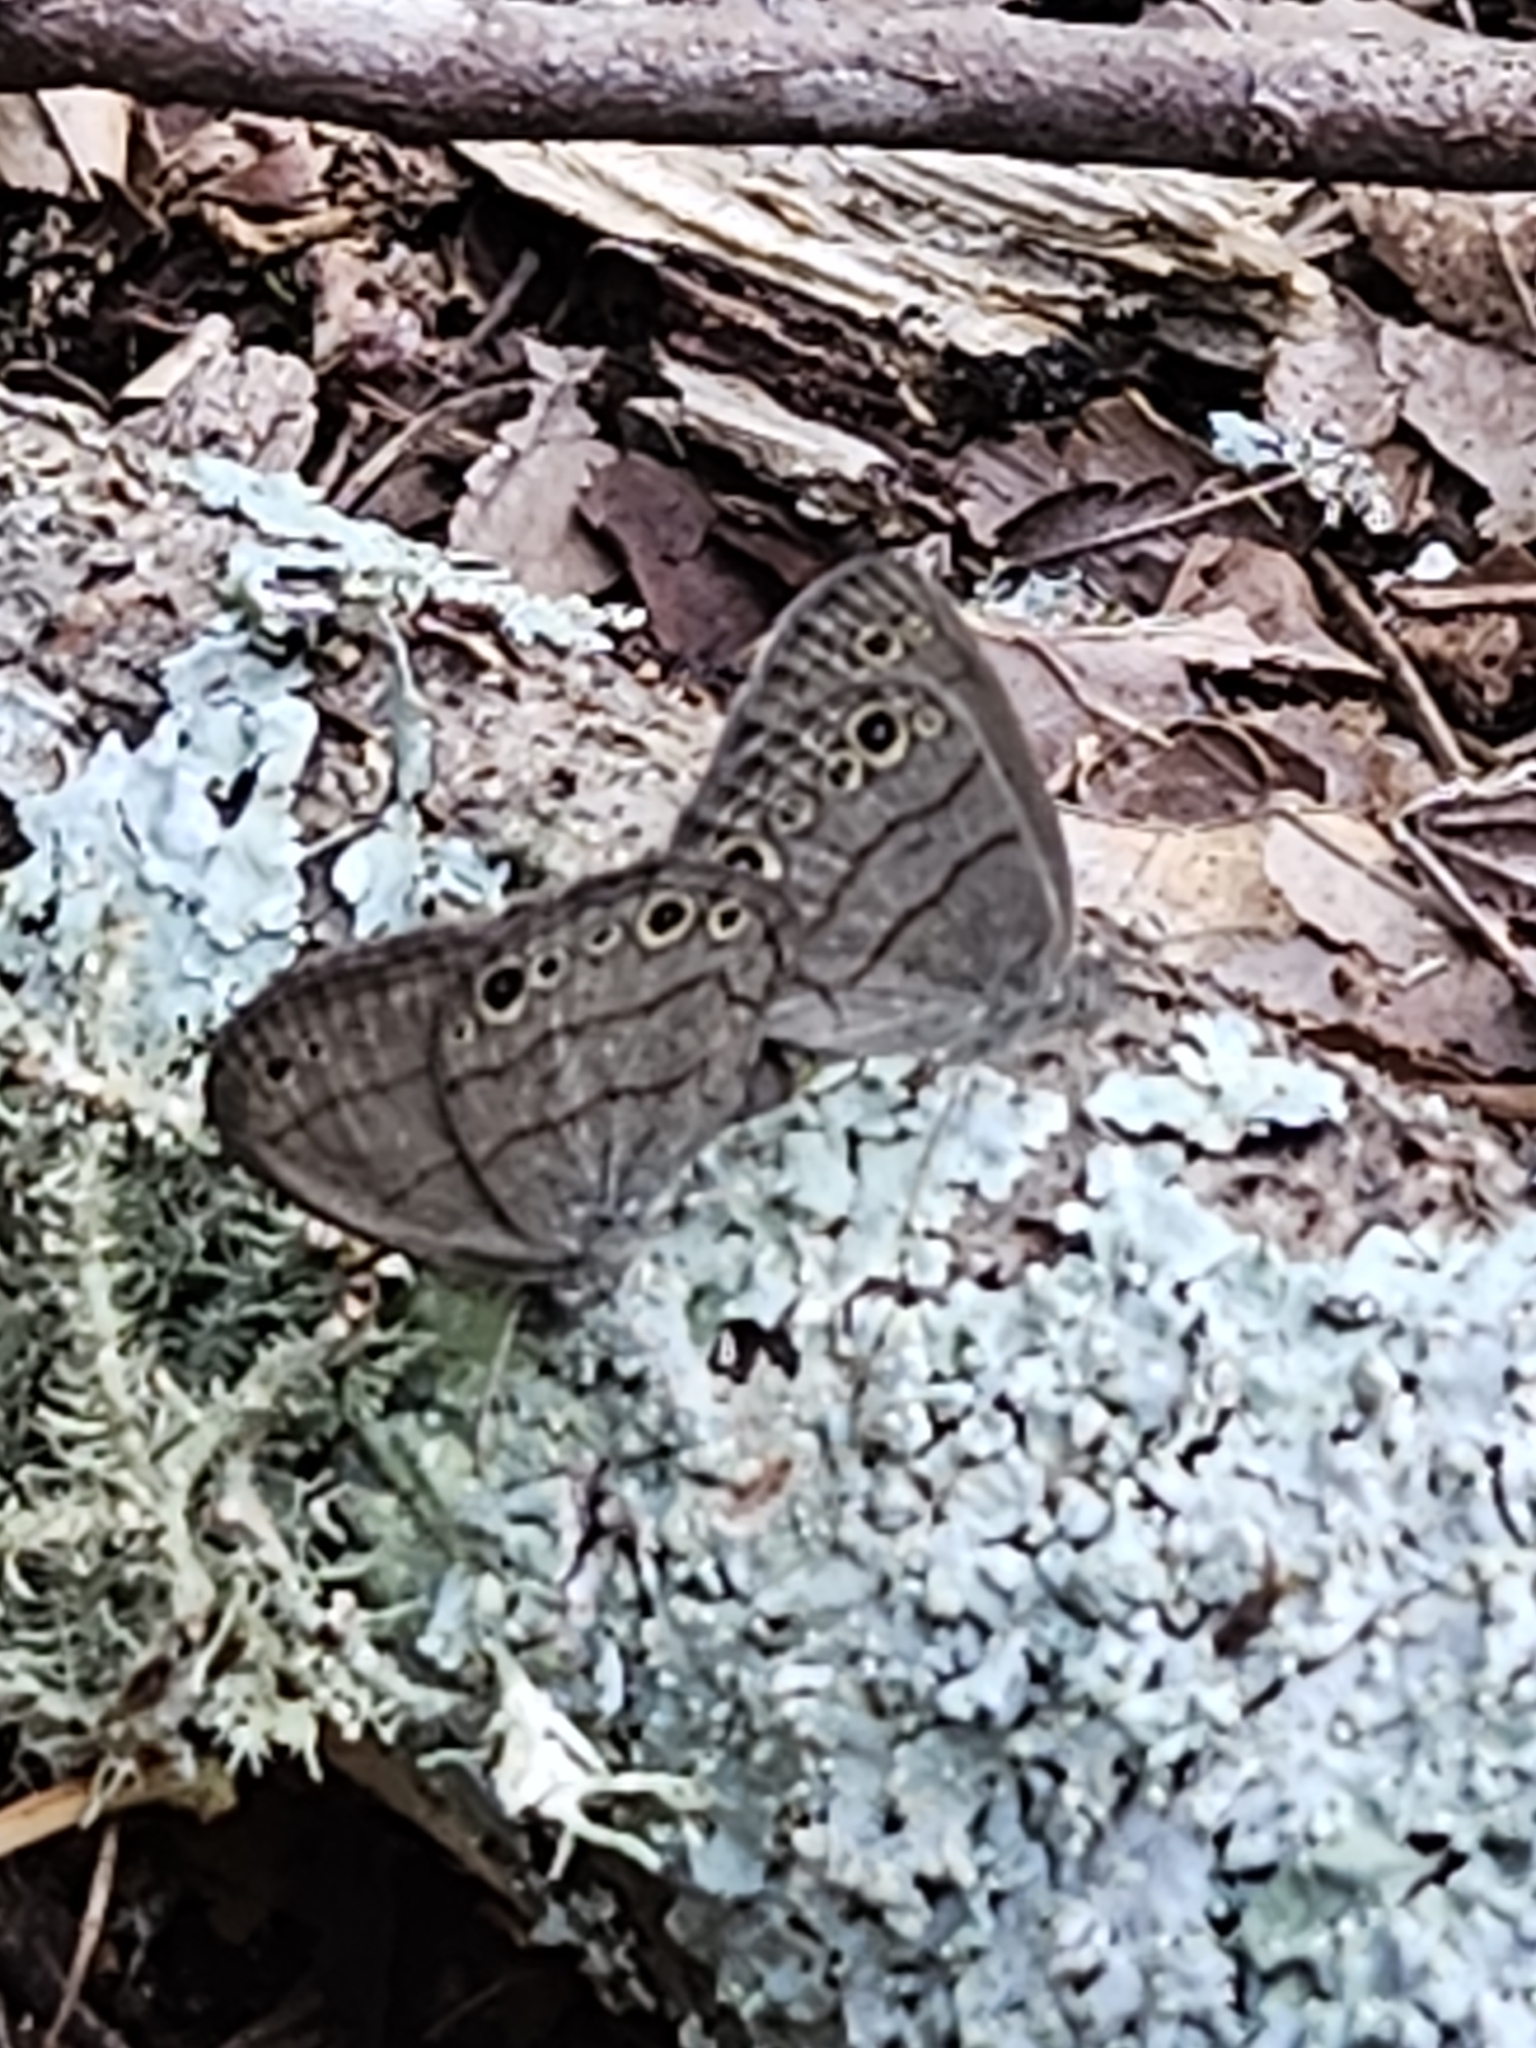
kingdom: Animalia
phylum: Arthropoda
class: Insecta
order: Lepidoptera
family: Nymphalidae
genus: Hermeuptychia
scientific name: Hermeuptychia hermes
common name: Hermes satyr
